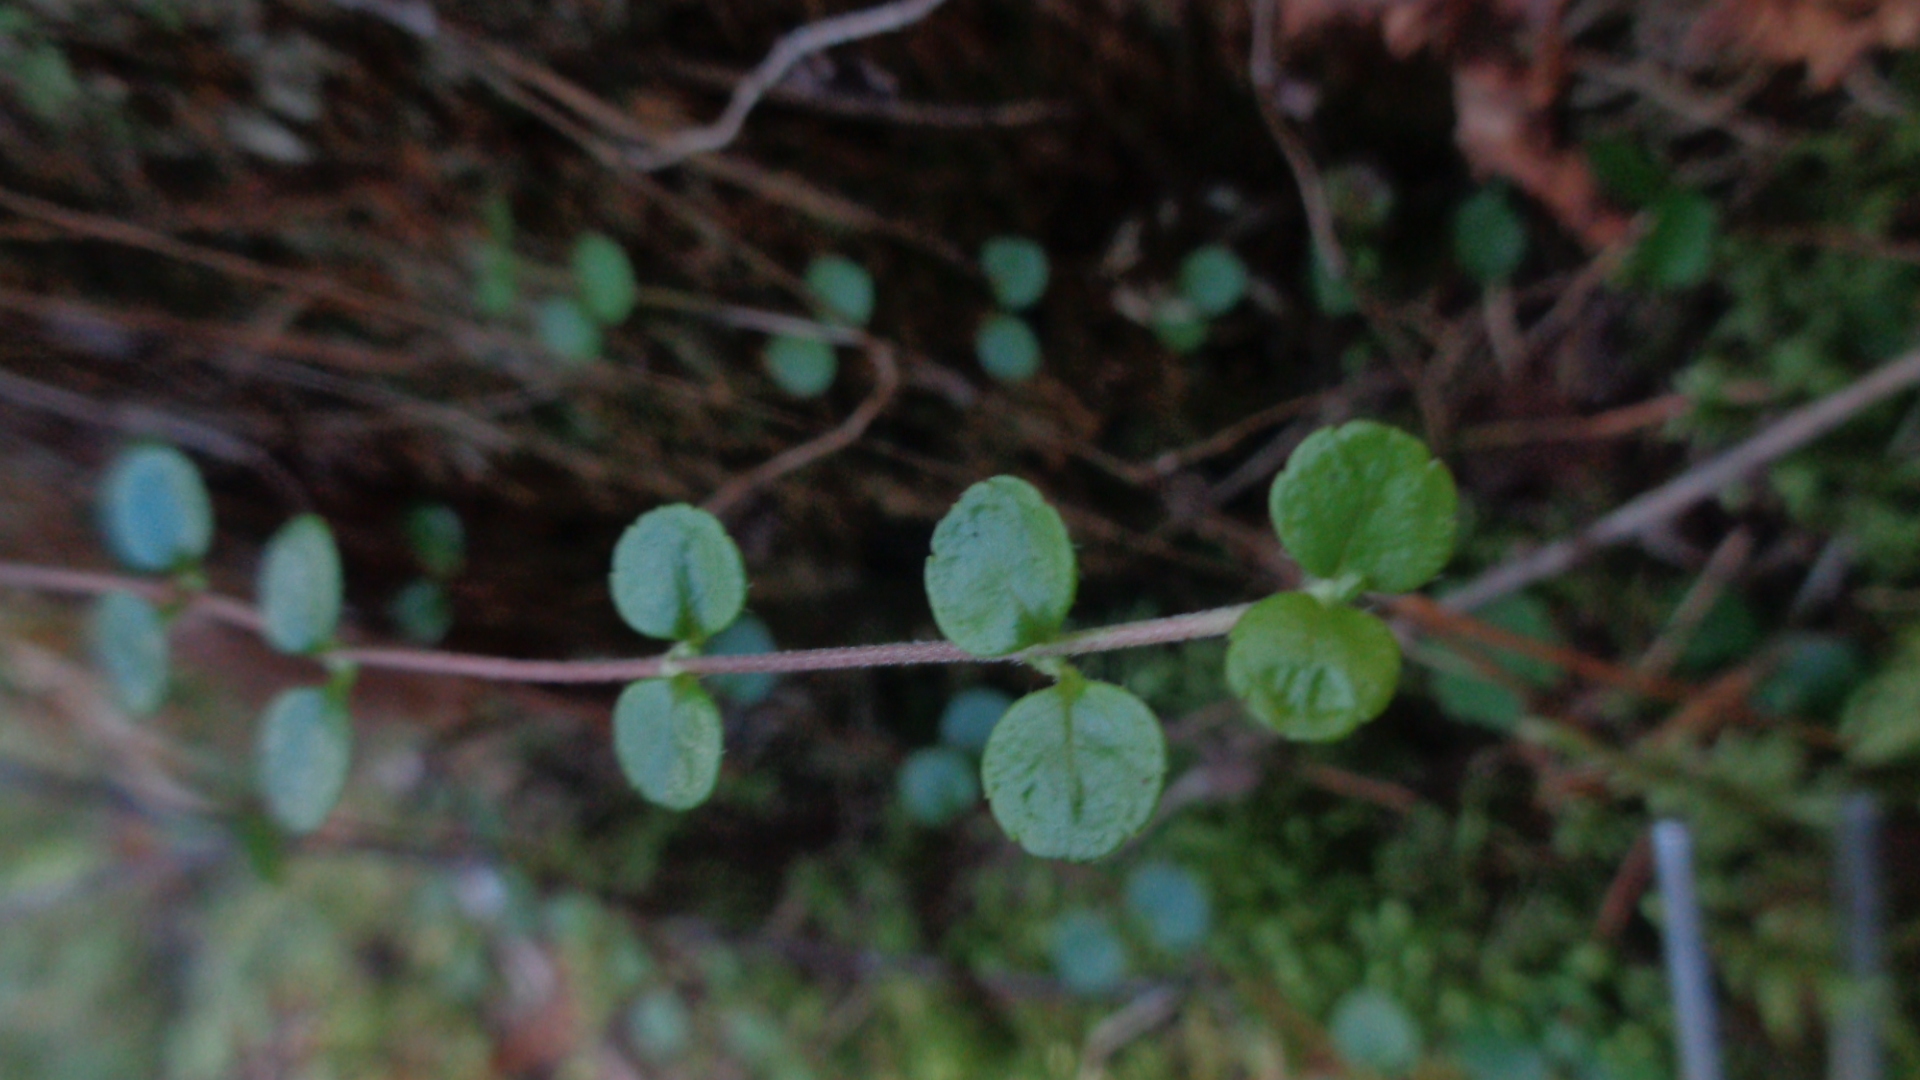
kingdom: Plantae
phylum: Tracheophyta
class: Magnoliopsida
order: Dipsacales
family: Caprifoliaceae
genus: Linnaea
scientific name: Linnaea borealis
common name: Twinflower
